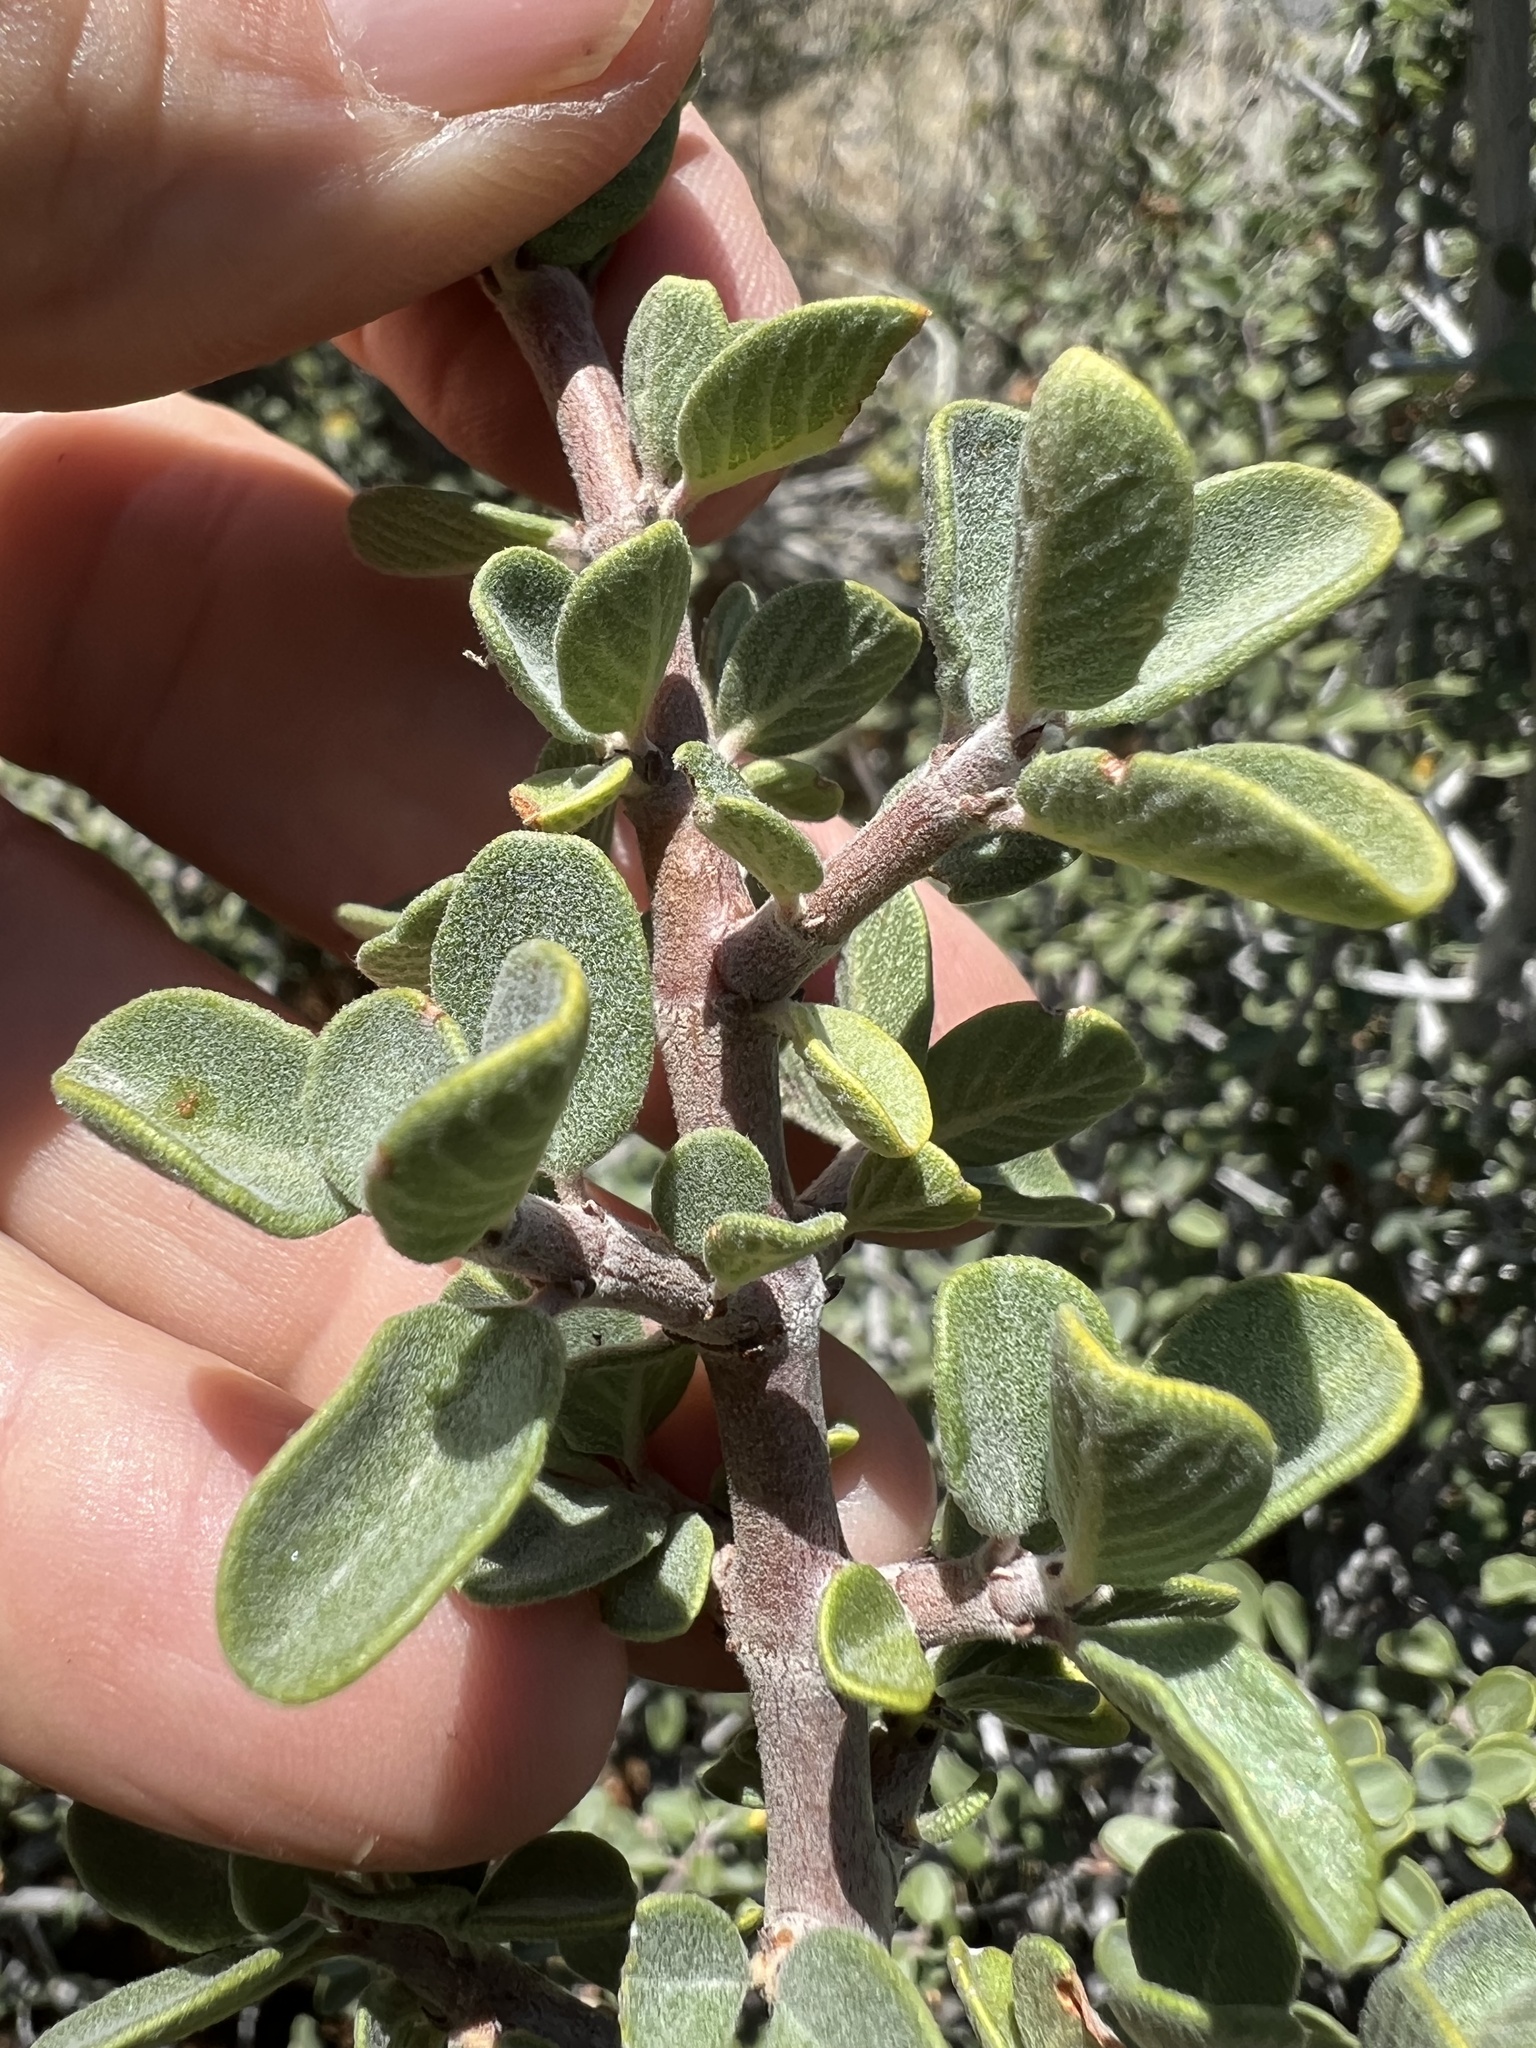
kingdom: Plantae
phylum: Tracheophyta
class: Magnoliopsida
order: Rosales
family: Rhamnaceae
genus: Ceanothus
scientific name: Ceanothus pauciflorus
